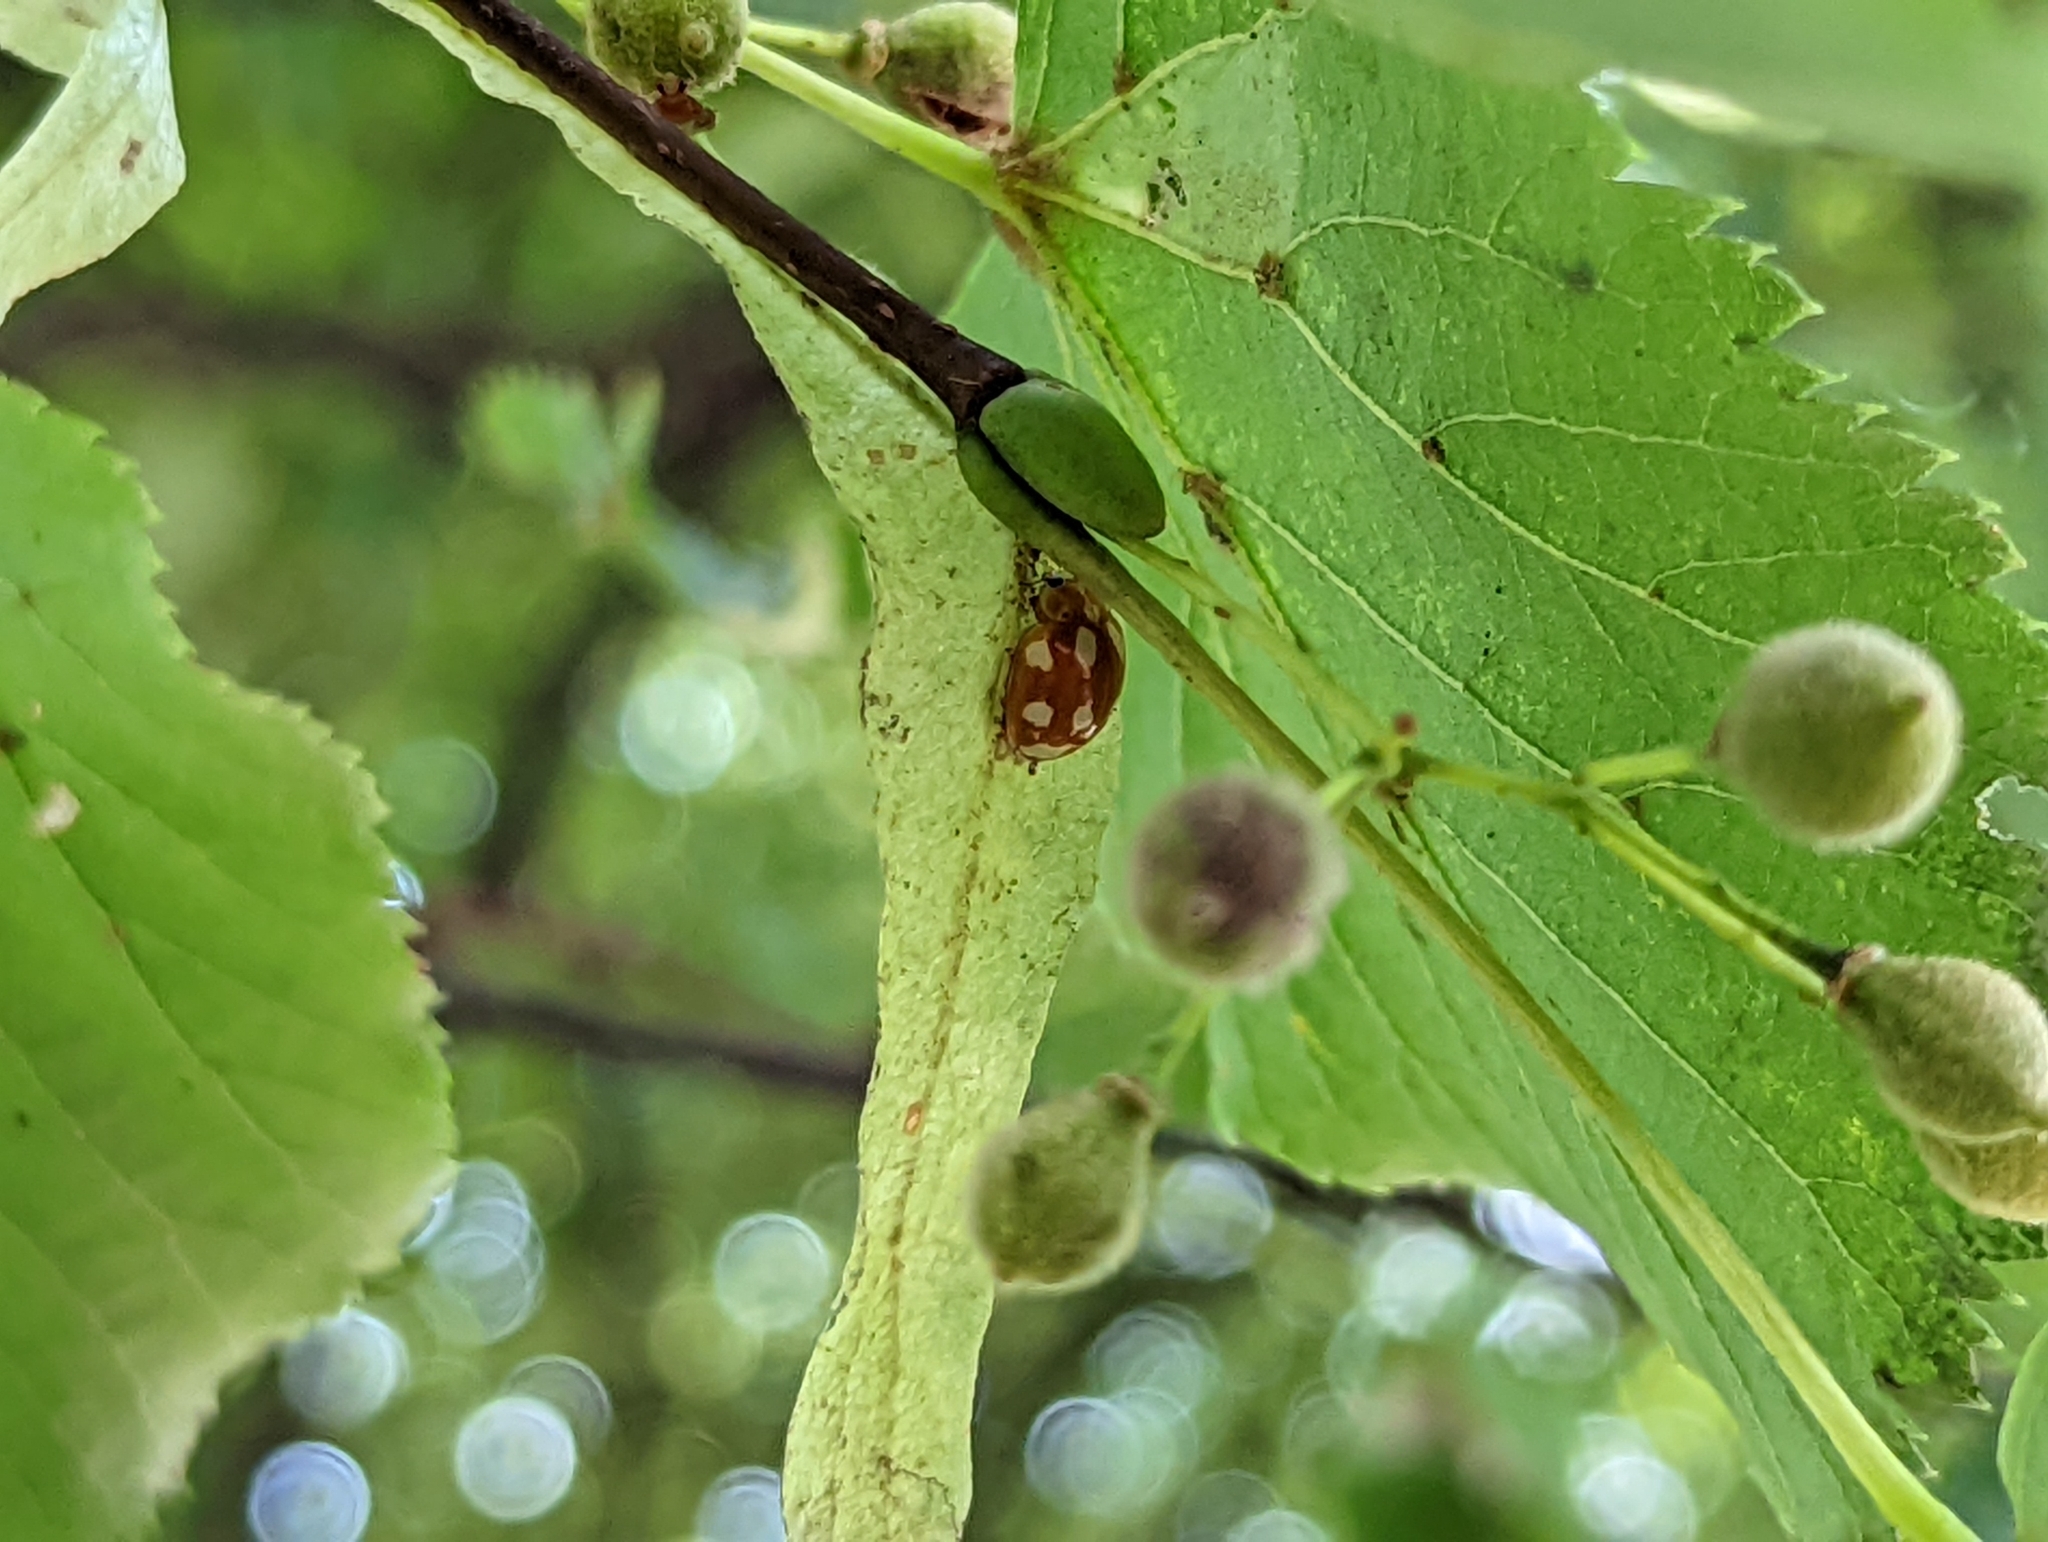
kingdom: Animalia
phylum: Arthropoda
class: Insecta
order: Coleoptera
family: Coccinellidae
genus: Calvia
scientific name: Calvia decemguttata
